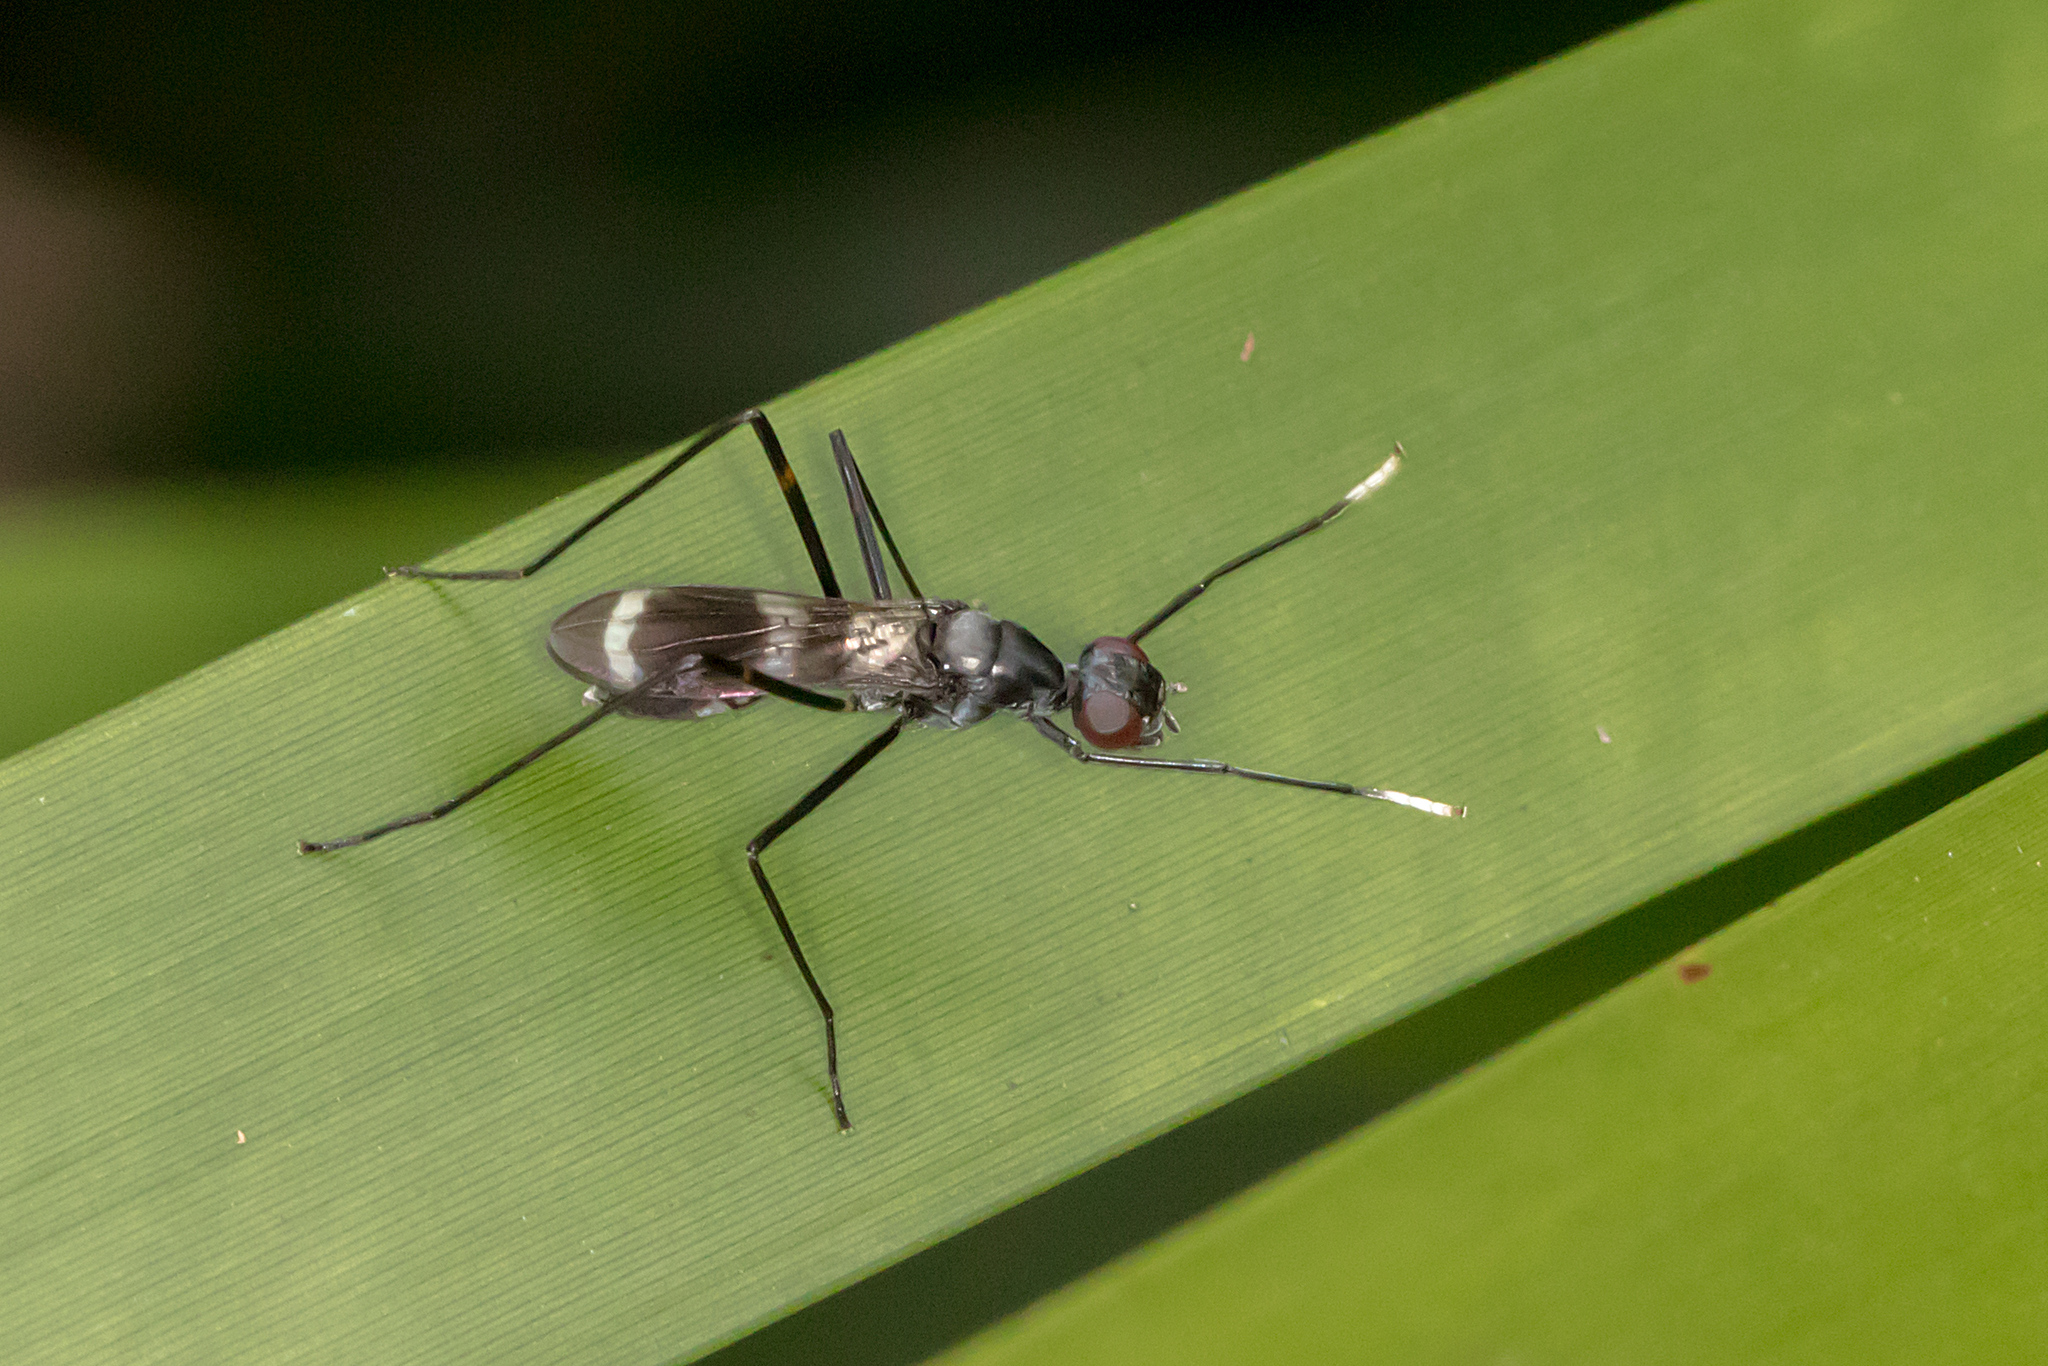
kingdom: Animalia
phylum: Arthropoda
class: Insecta
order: Diptera
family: Micropezidae
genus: Mimegralla
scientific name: Mimegralla australica
